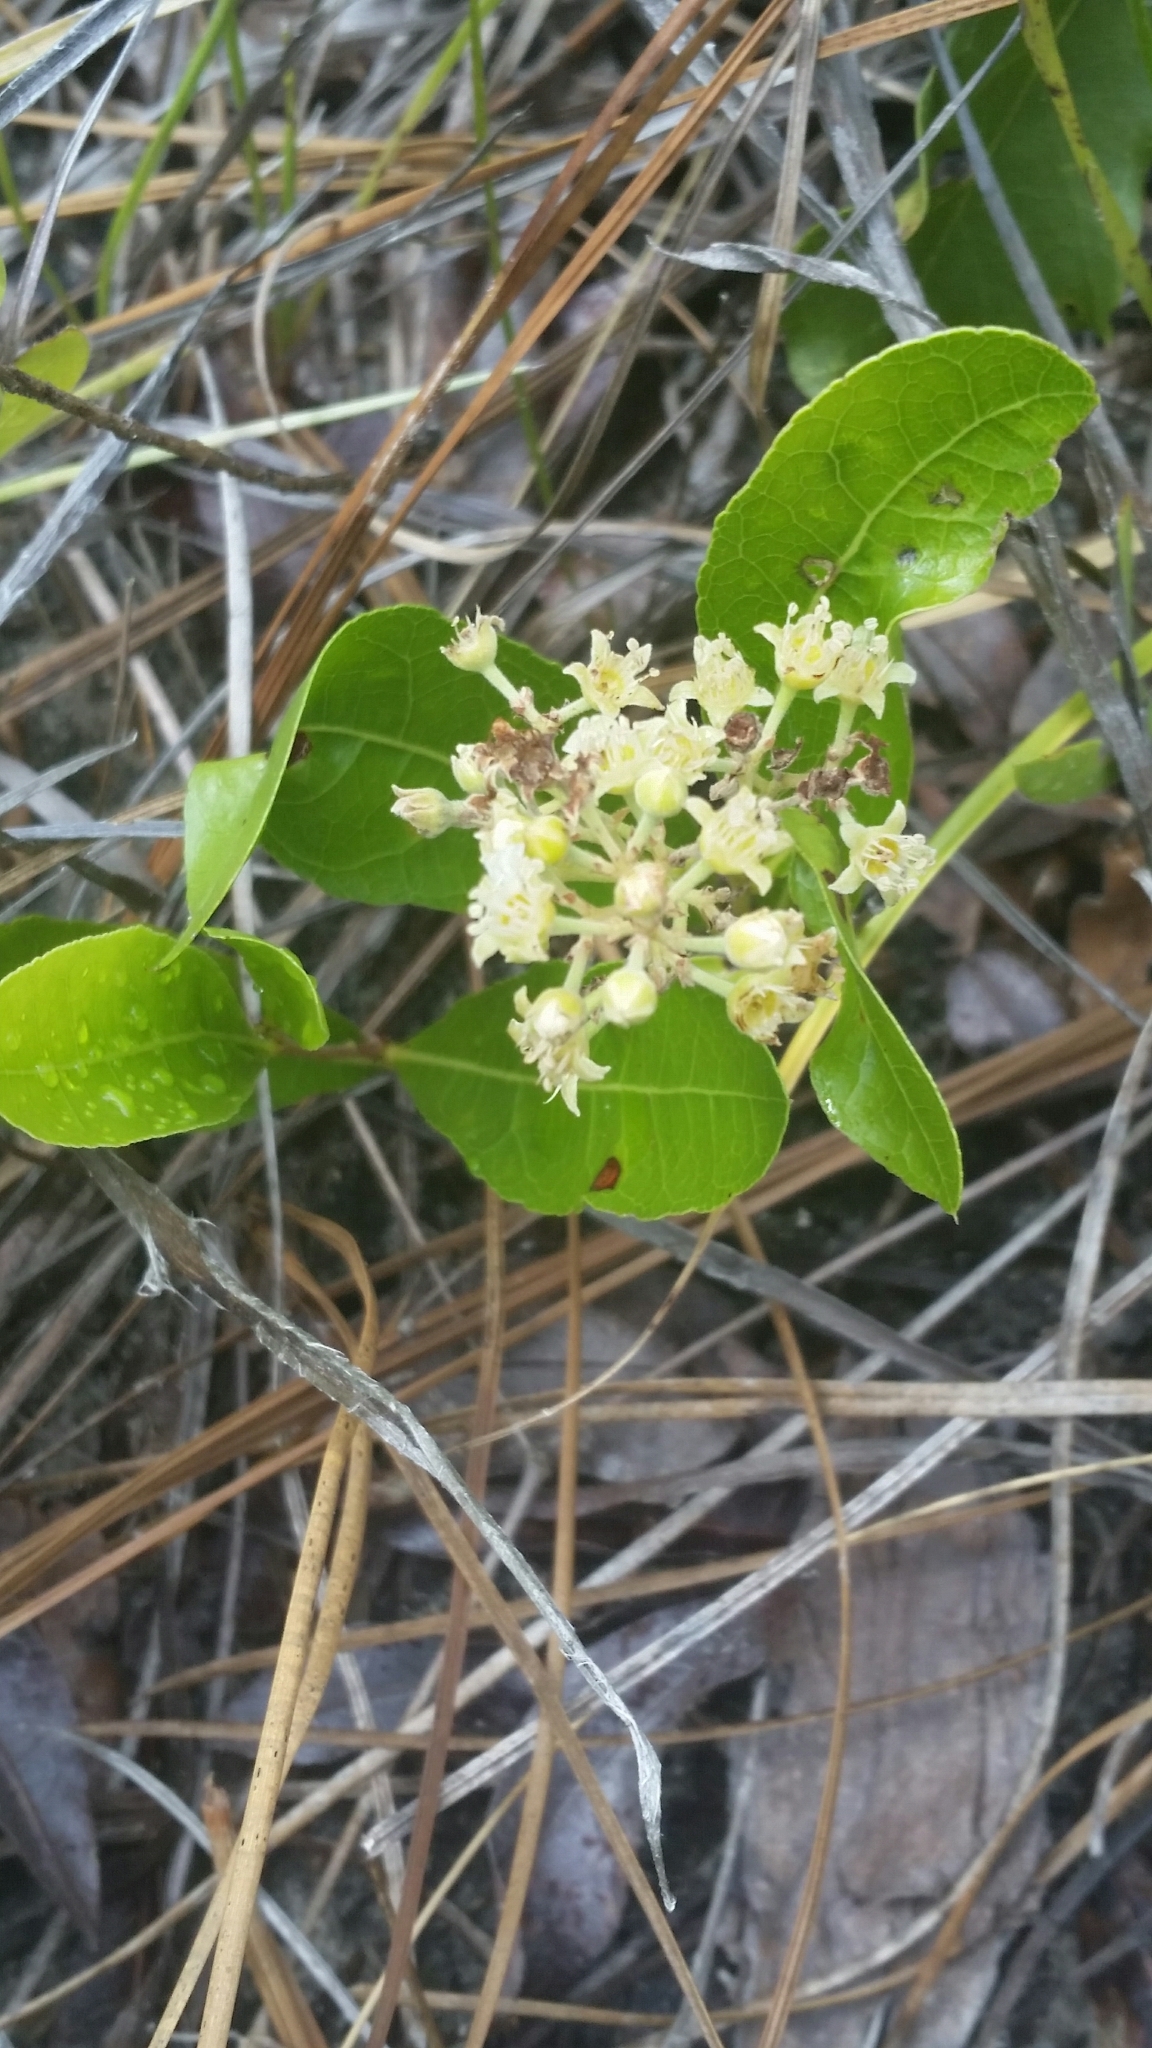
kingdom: Plantae
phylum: Tracheophyta
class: Magnoliopsida
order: Malpighiales
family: Chrysobalanaceae
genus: Geobalanus
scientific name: Geobalanus oblongifolius
